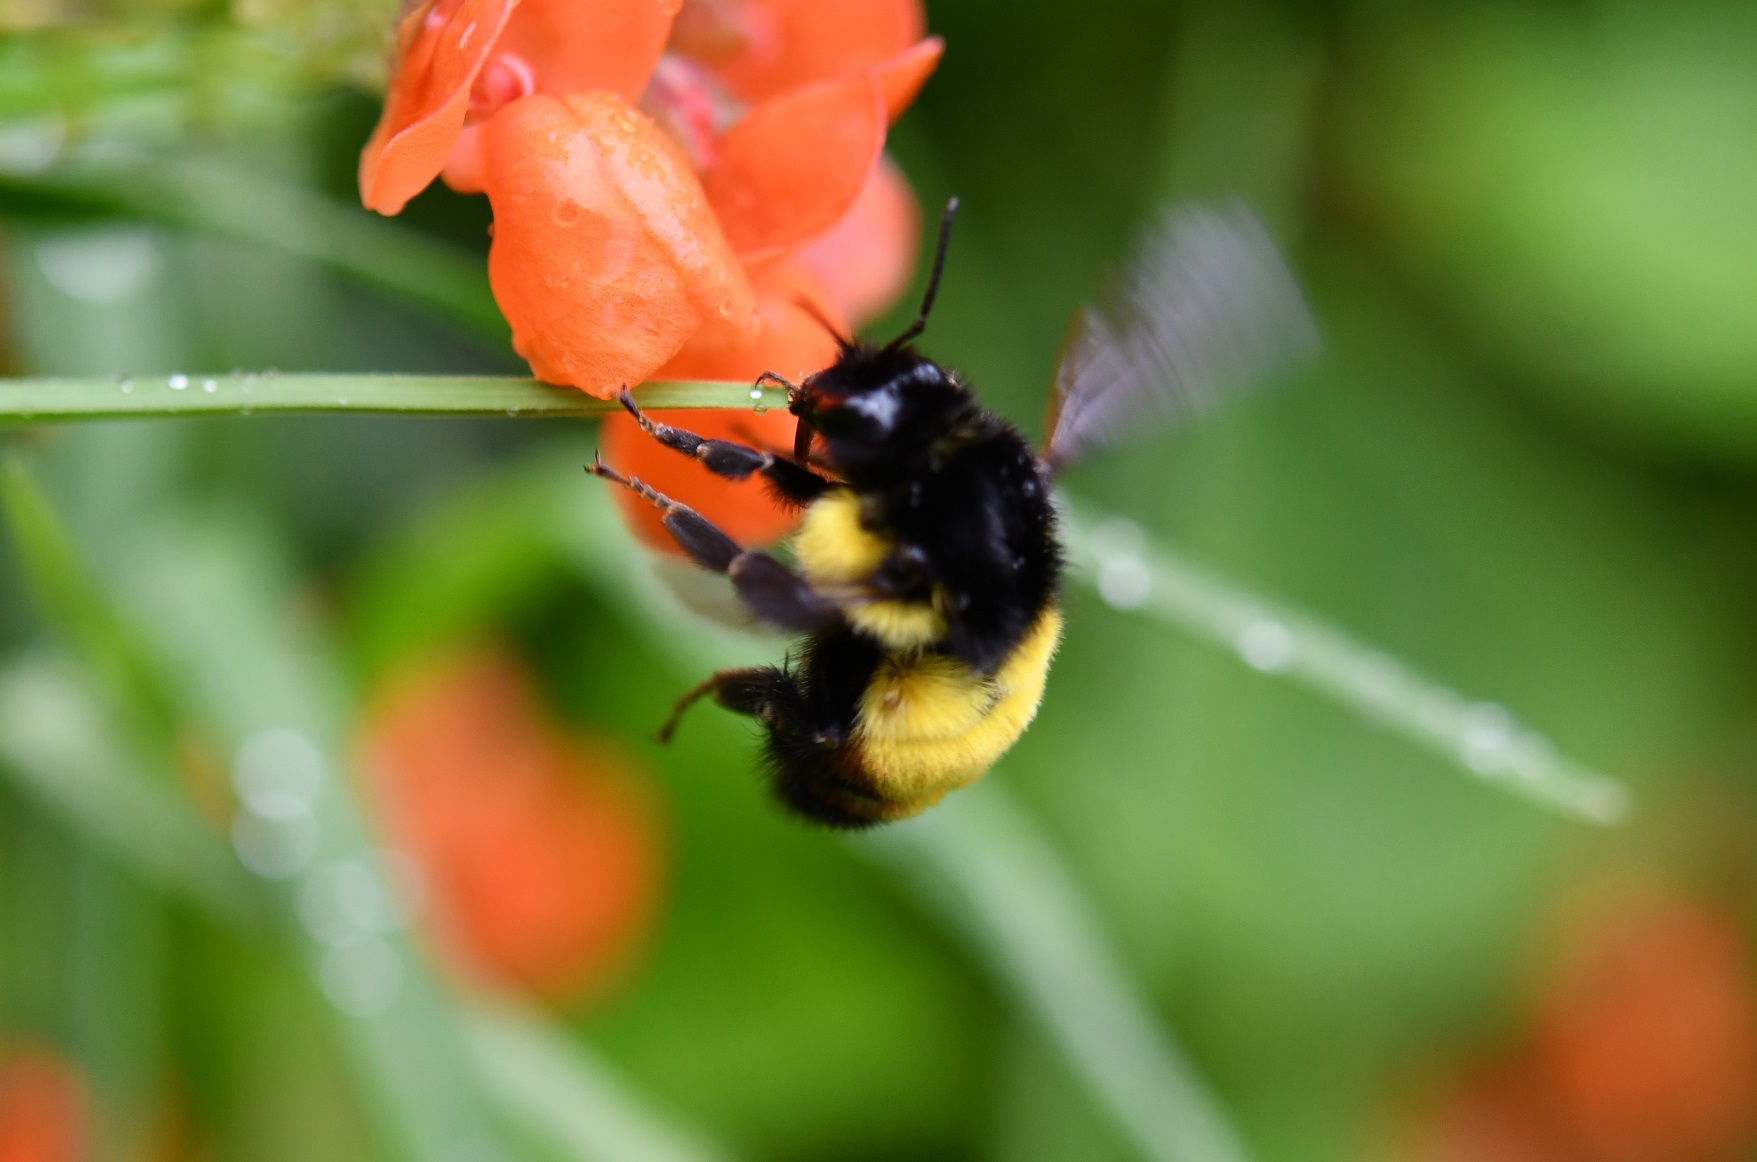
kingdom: Animalia
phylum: Arthropoda
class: Insecta
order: Hymenoptera
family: Apidae
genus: Bombus
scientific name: Bombus ephippiatus
